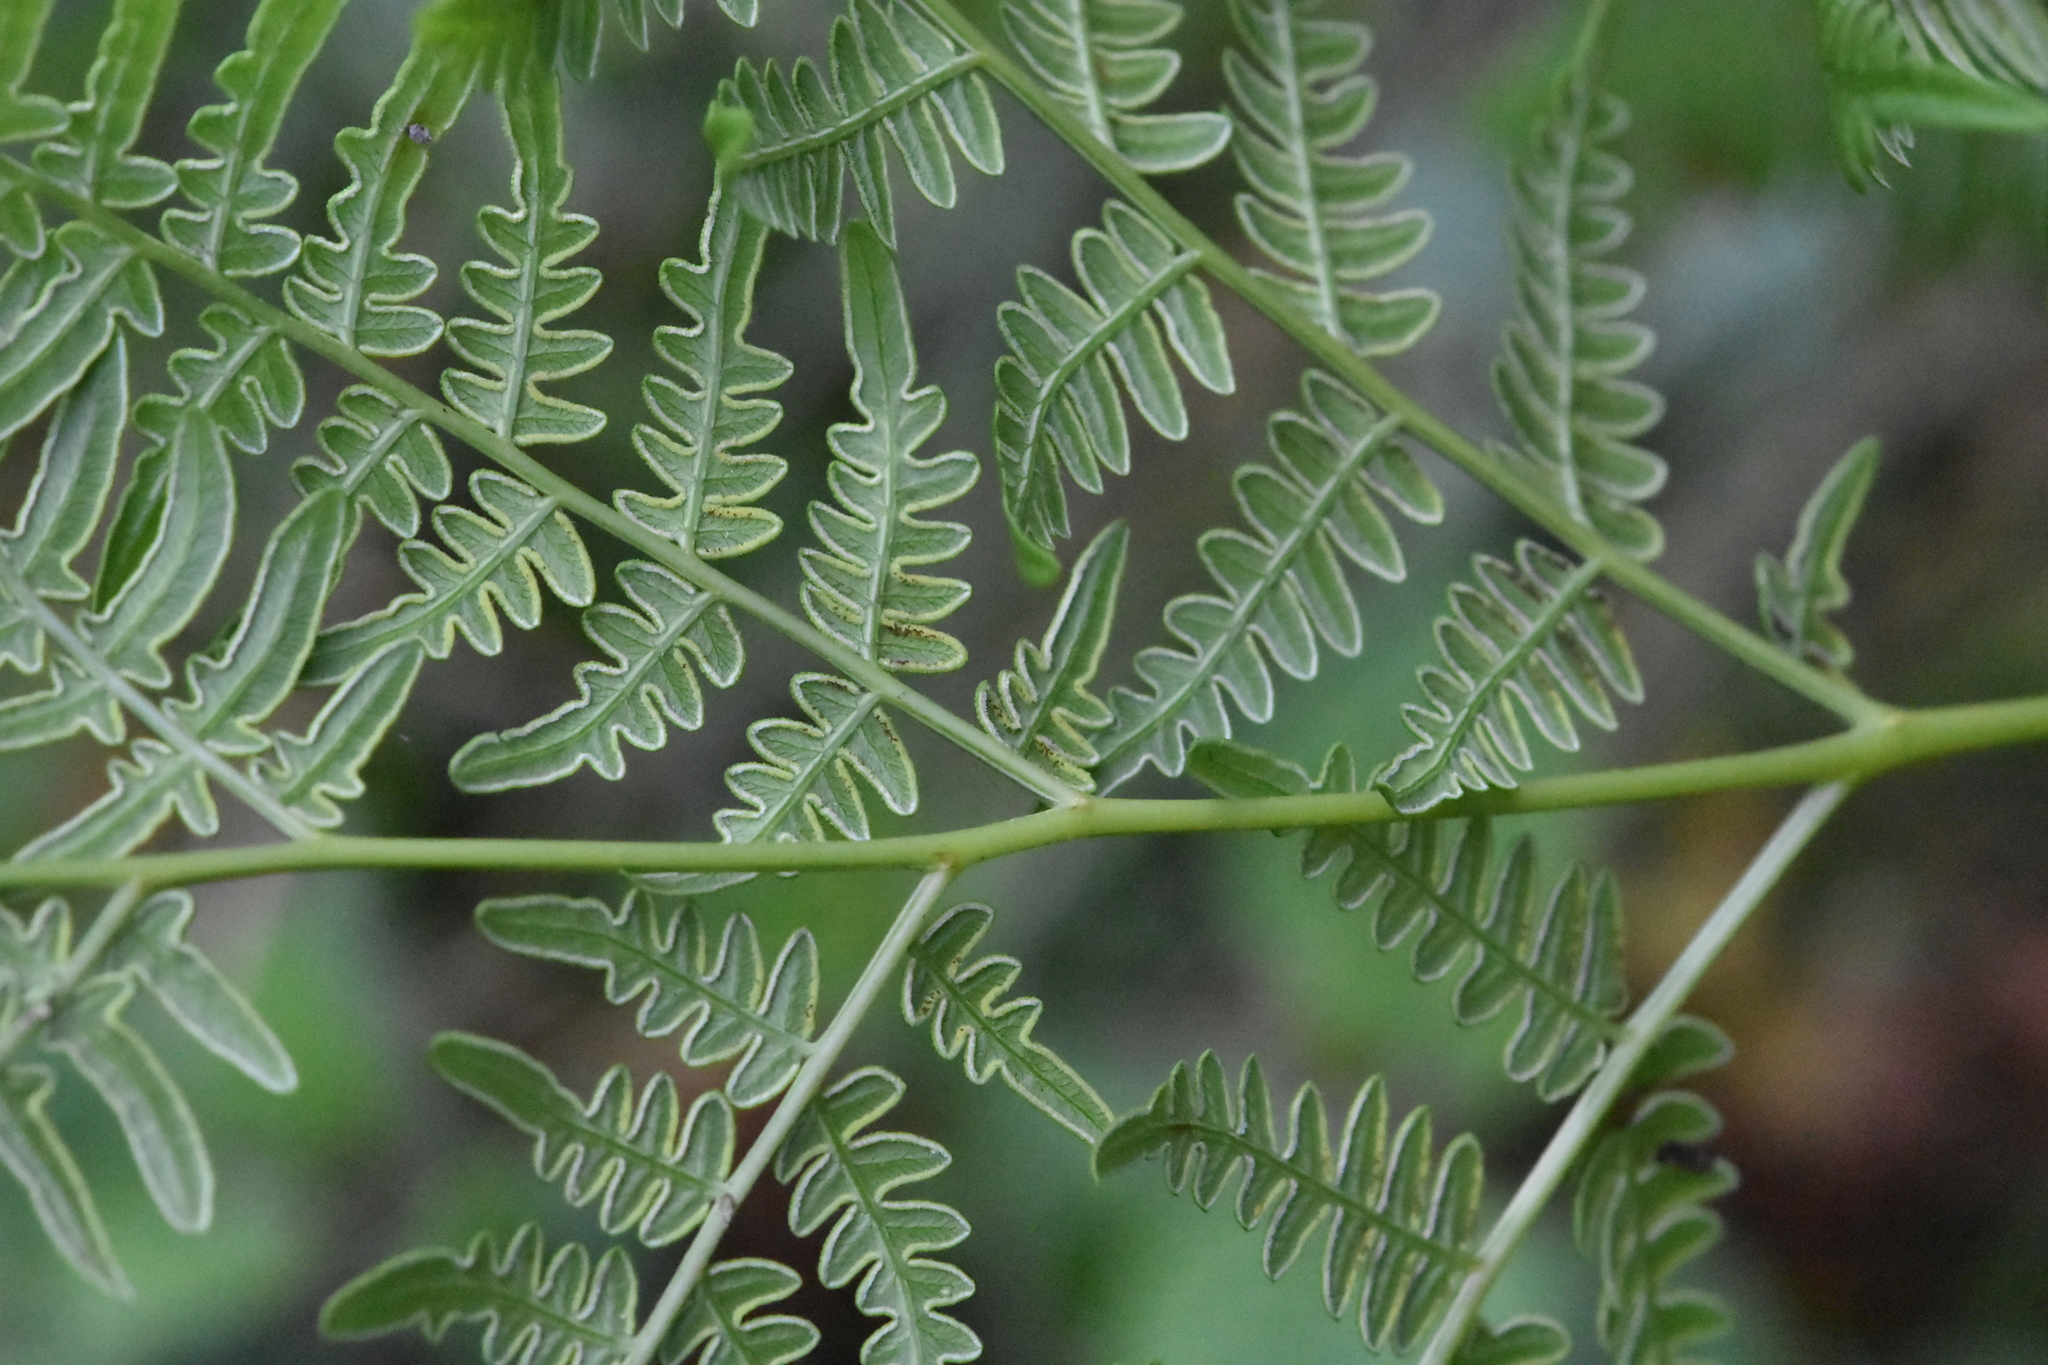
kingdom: Plantae
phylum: Tracheophyta
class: Polypodiopsida
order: Polypodiales
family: Dennstaedtiaceae
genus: Pteridium
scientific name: Pteridium aquilinum
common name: Bracken
